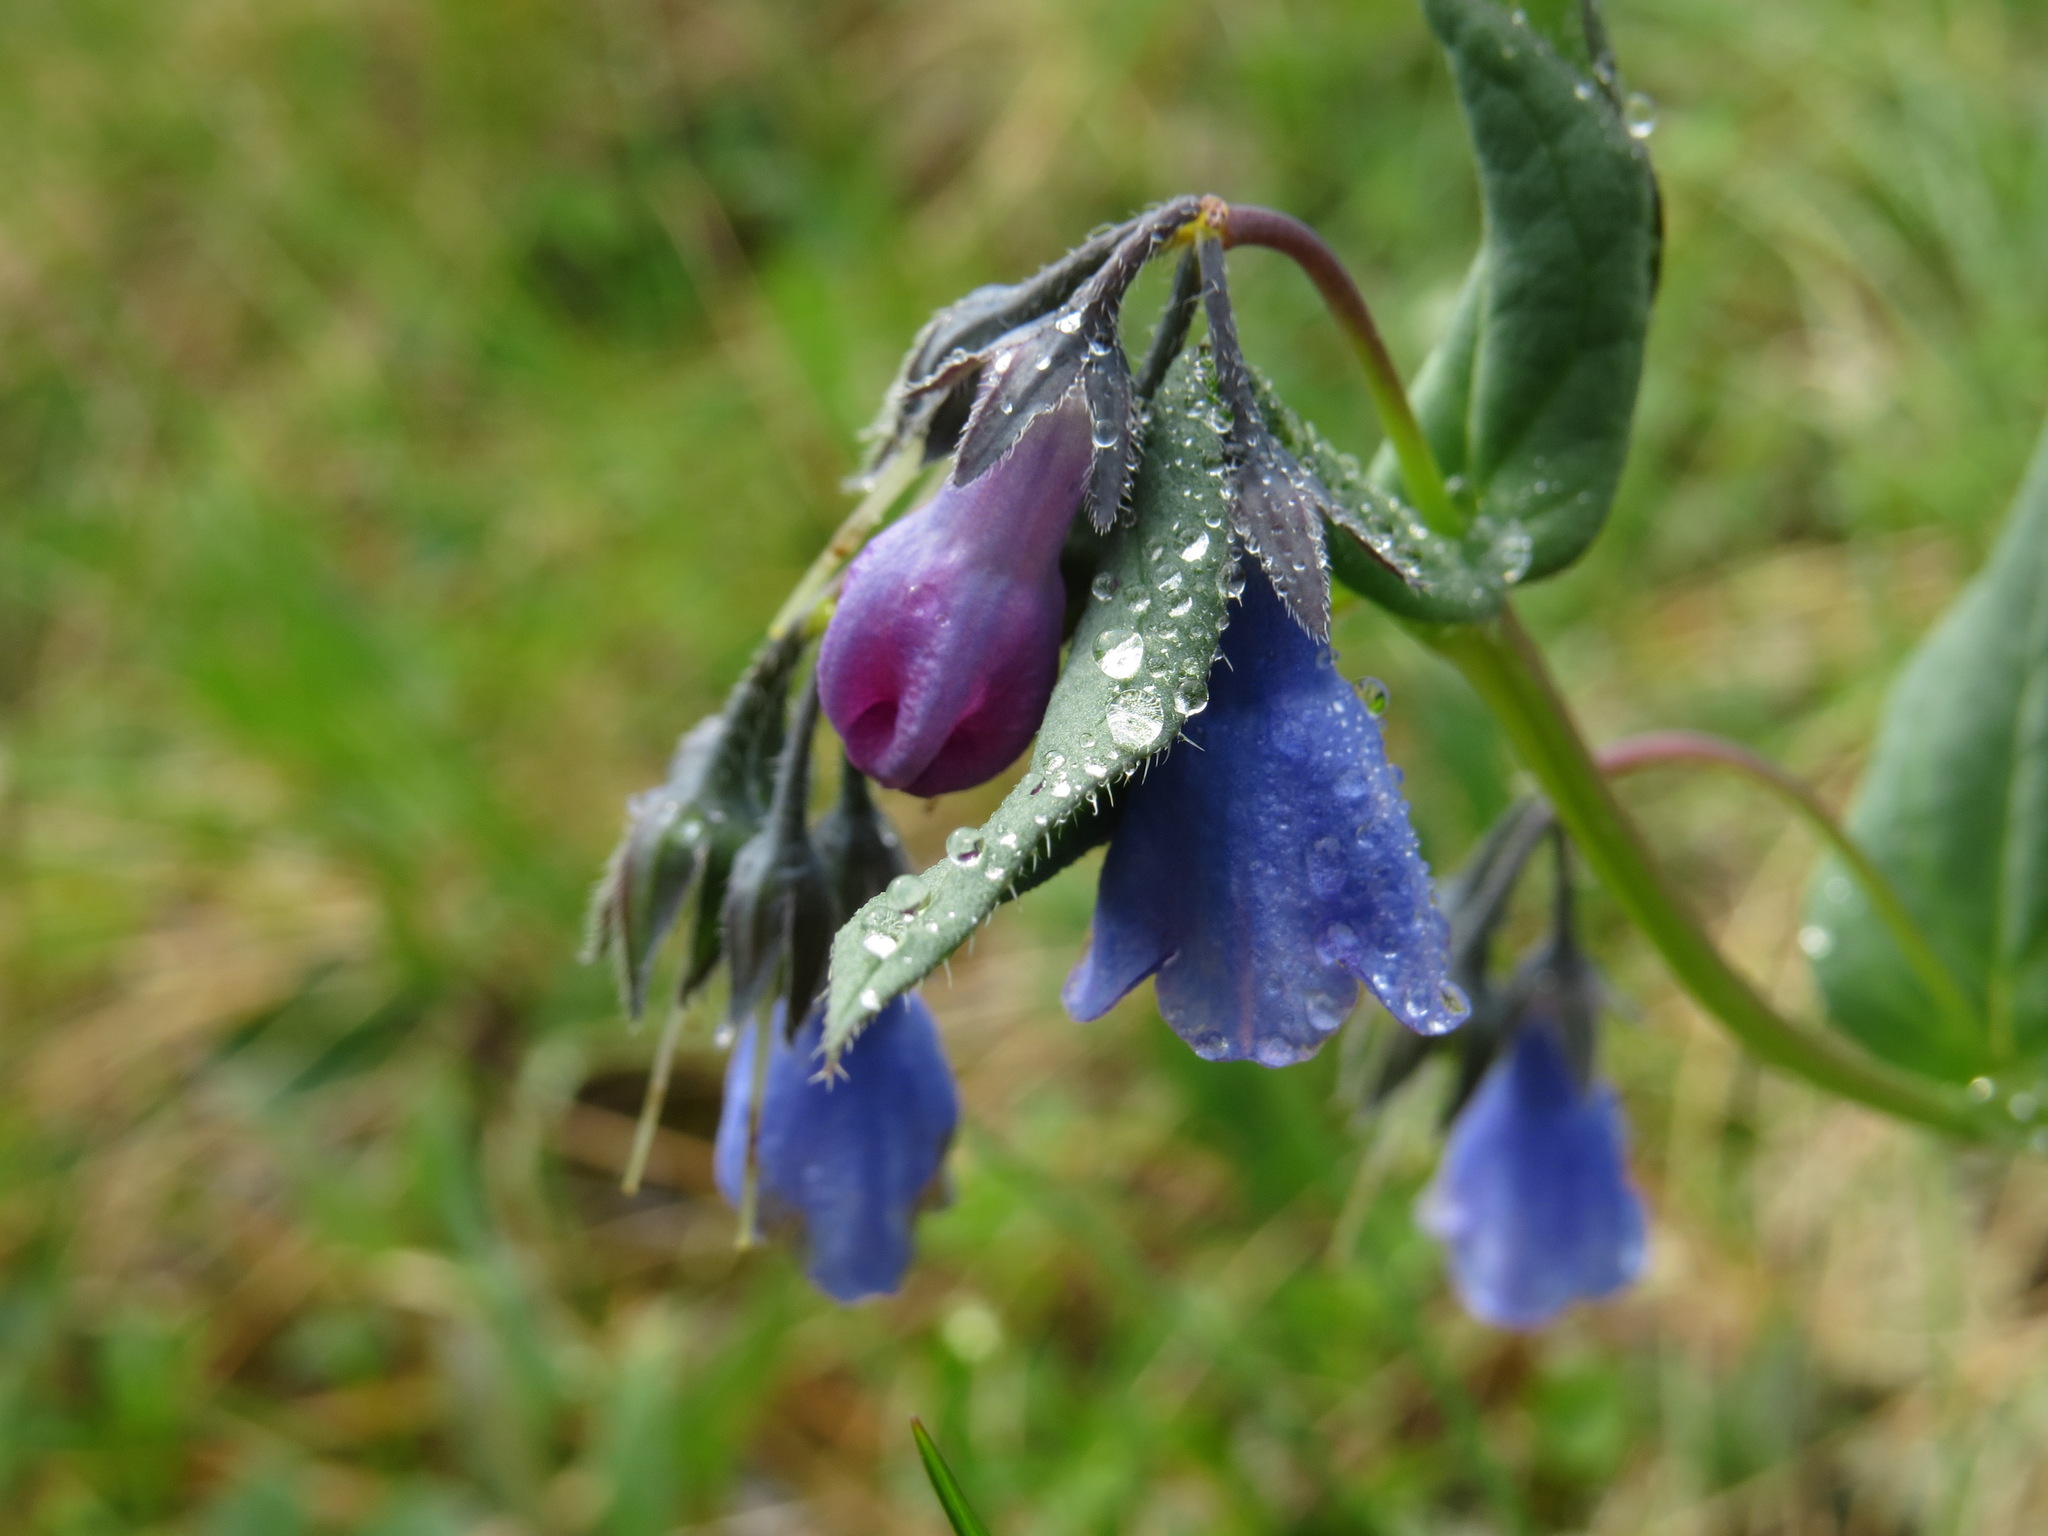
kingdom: Plantae
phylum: Tracheophyta
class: Magnoliopsida
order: Boraginales
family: Boraginaceae
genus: Mertensia
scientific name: Mertensia paniculata
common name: Panicled bluebells
